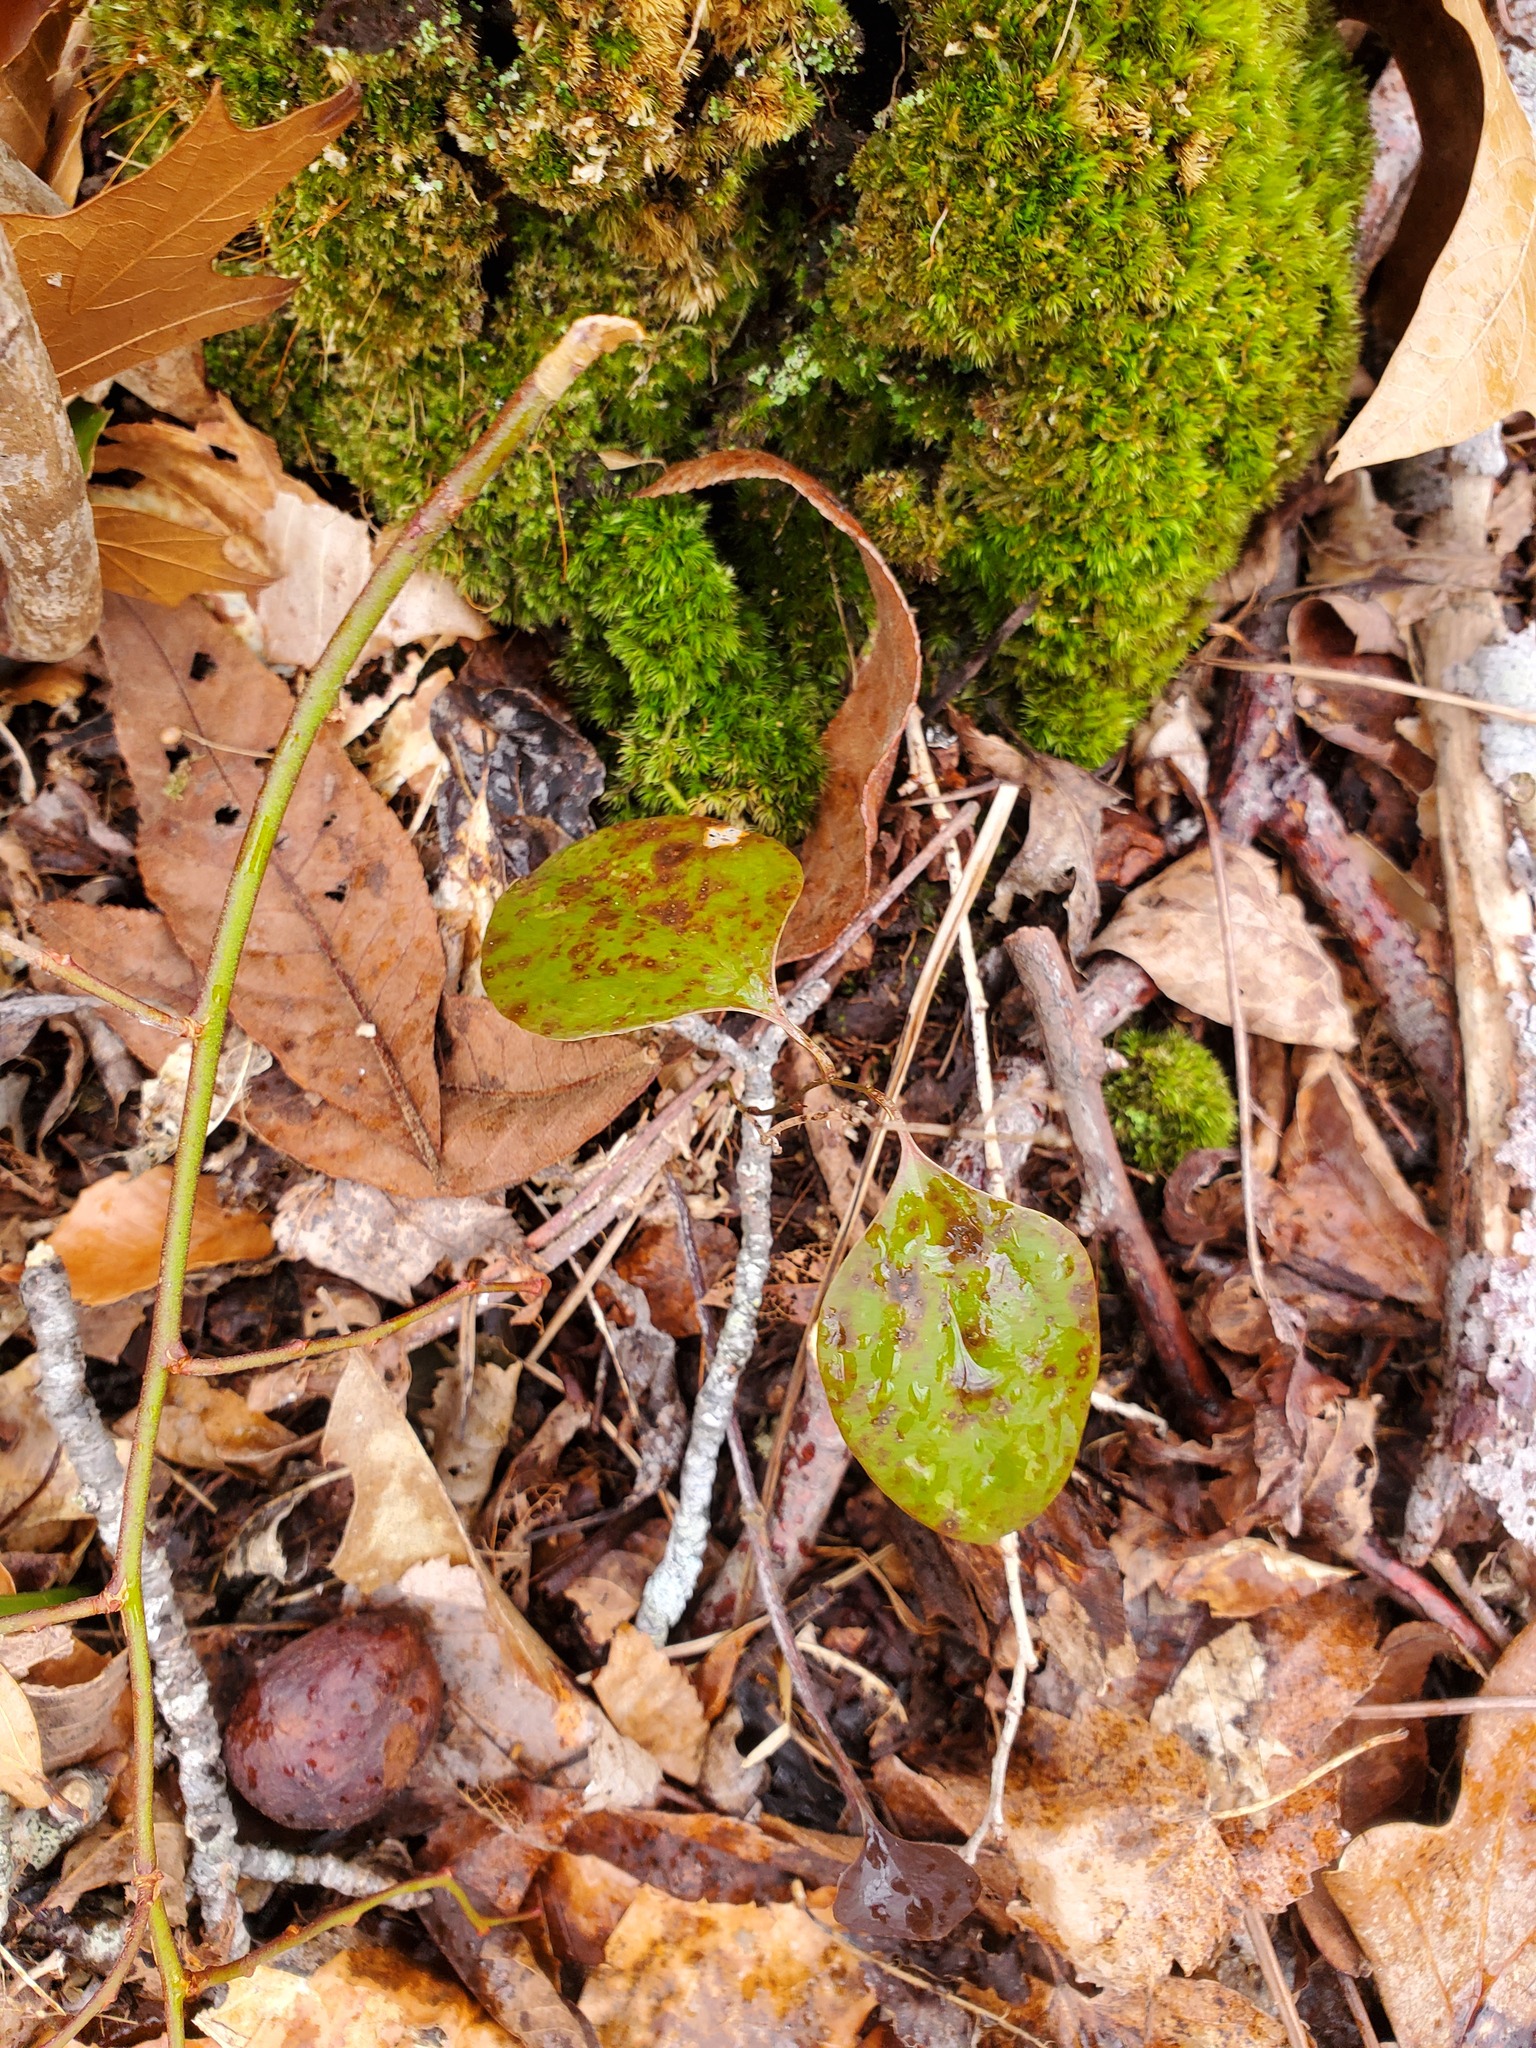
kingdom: Plantae
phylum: Tracheophyta
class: Liliopsida
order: Liliales
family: Smilacaceae
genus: Smilax
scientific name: Smilax glauca
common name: Cat greenbrier
